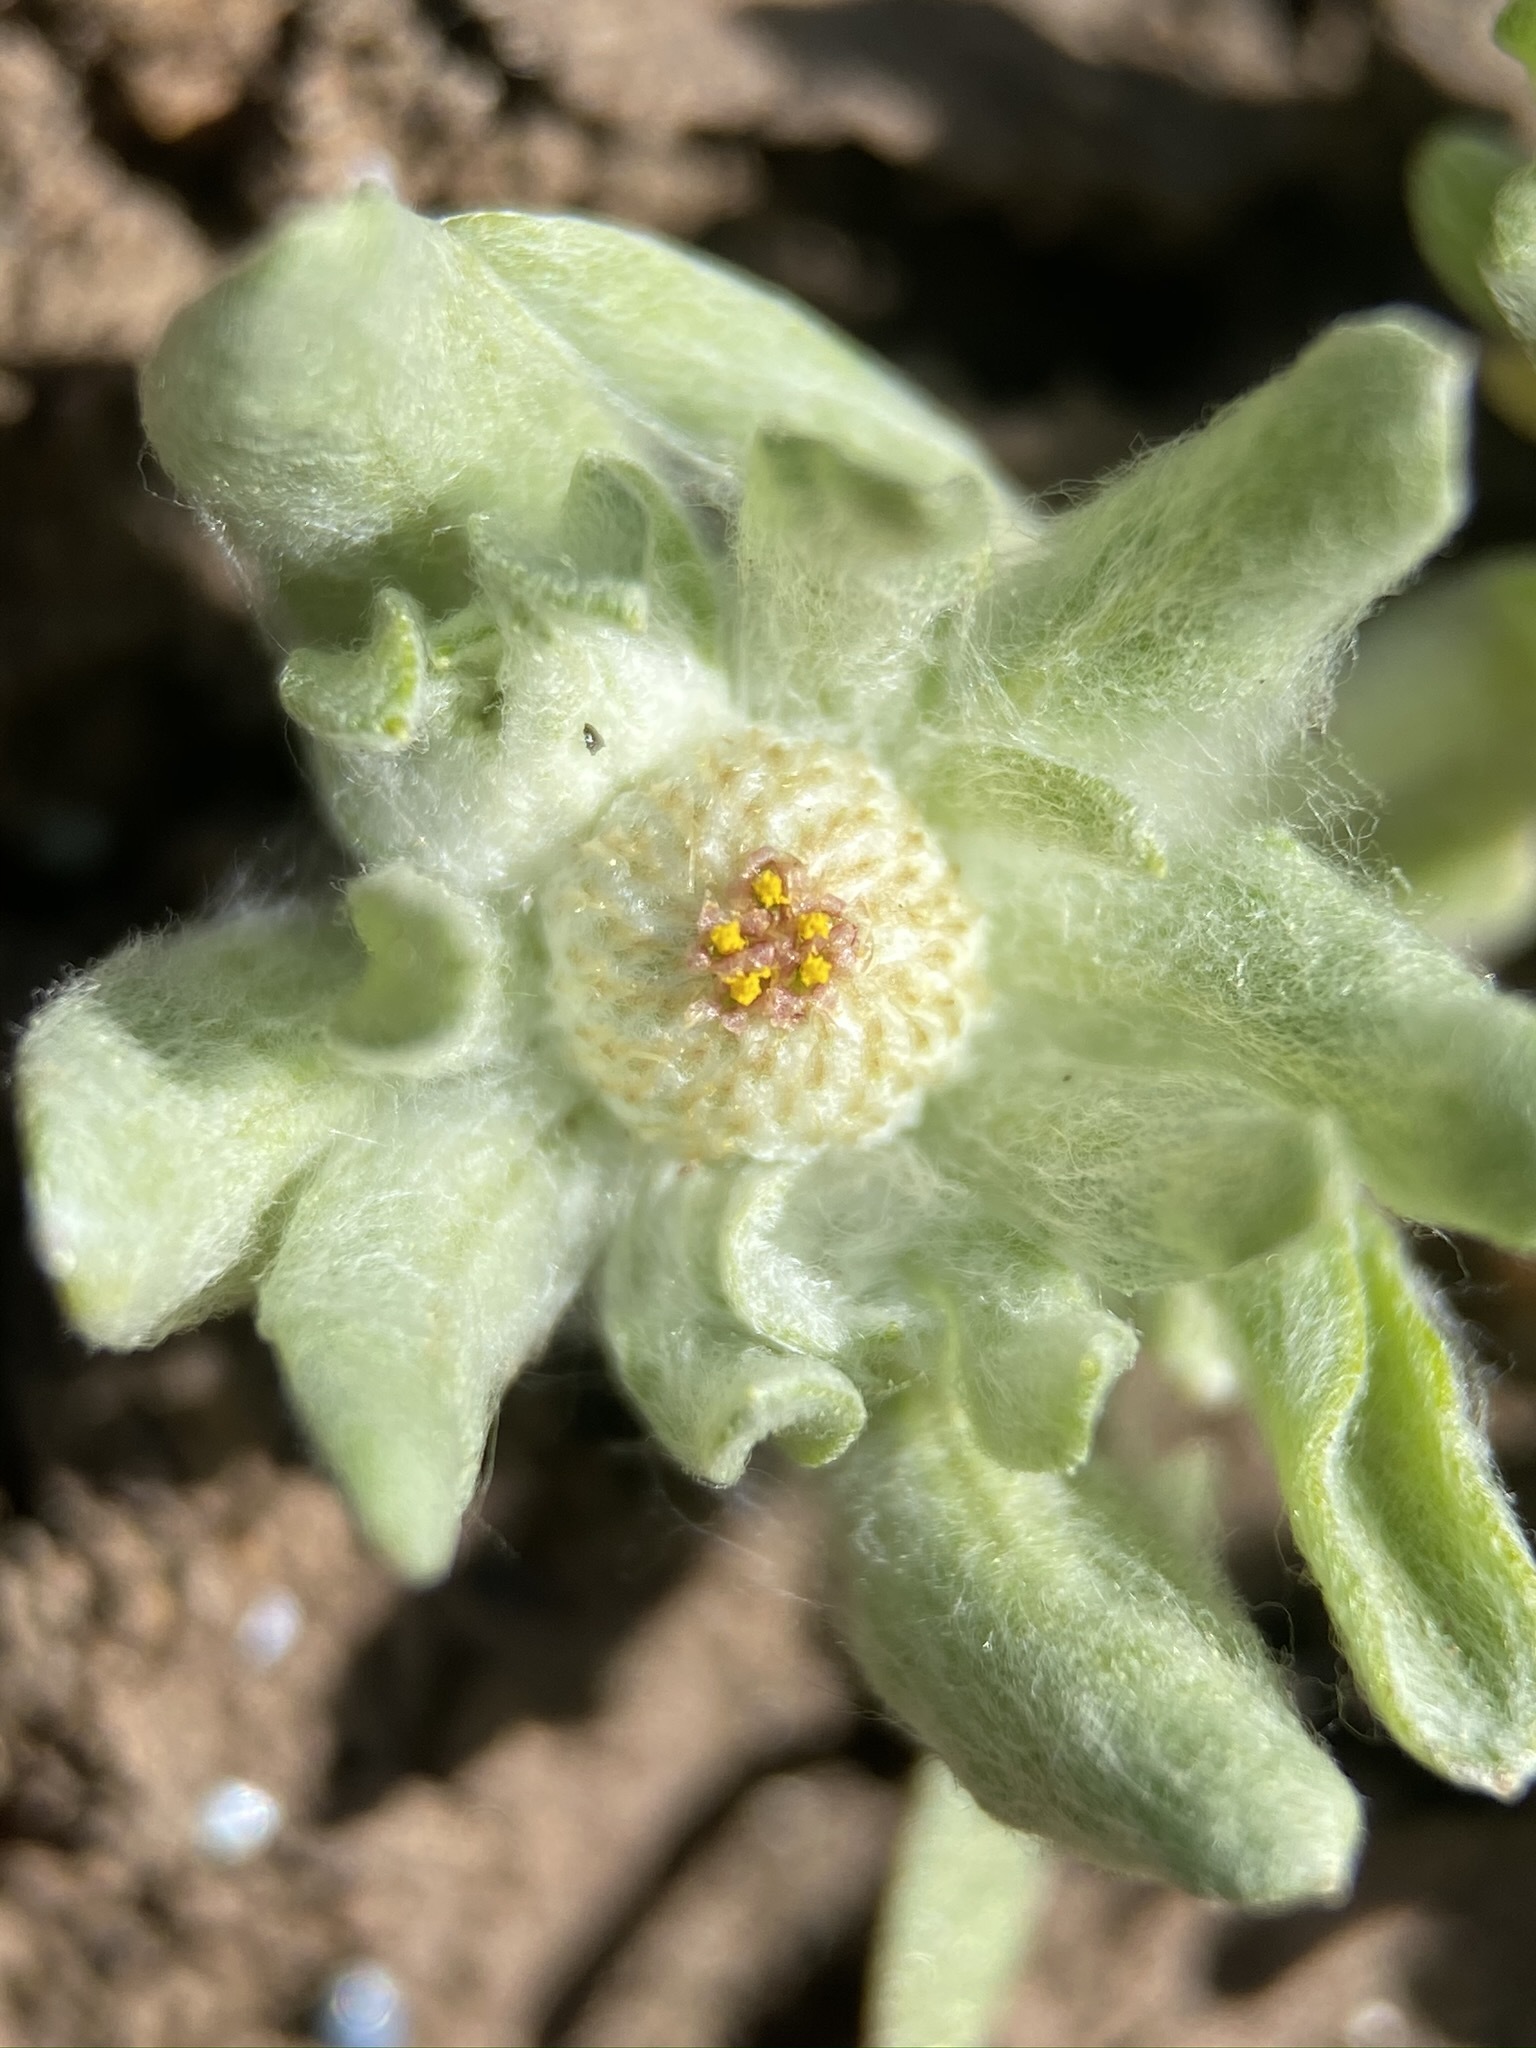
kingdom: Plantae
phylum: Tracheophyta
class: Magnoliopsida
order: Asterales
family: Asteraceae
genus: Psilocarphus
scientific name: Psilocarphus brevissimus
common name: Dwarf woollyheads
